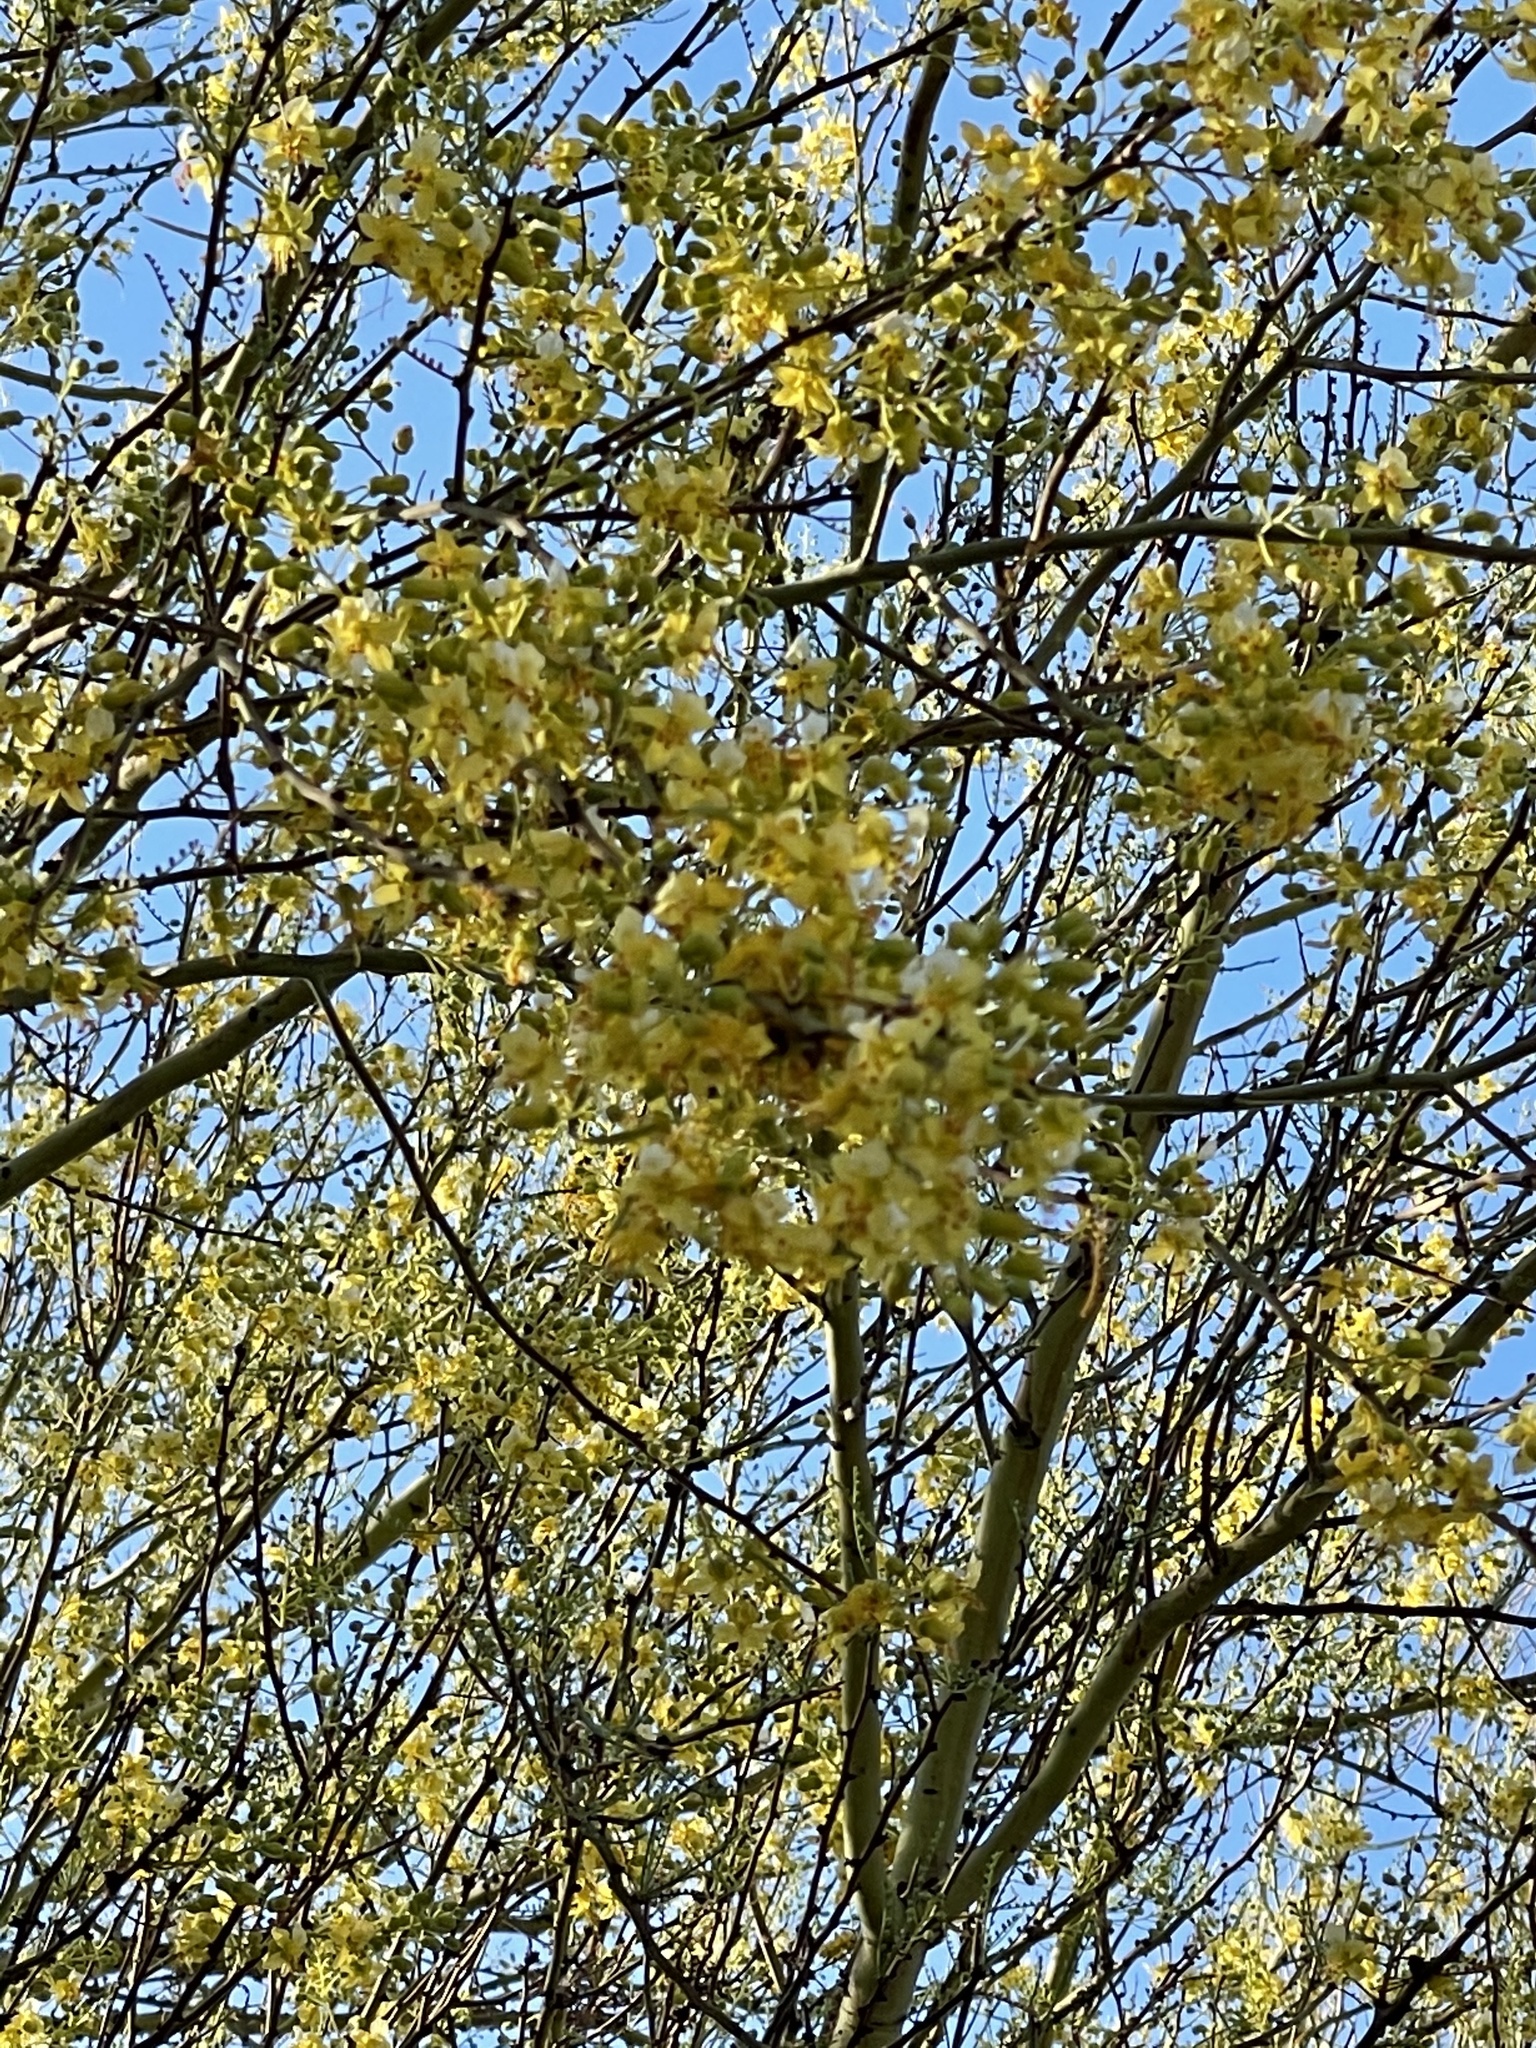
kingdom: Plantae
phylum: Tracheophyta
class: Magnoliopsida
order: Fabales
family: Fabaceae
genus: Parkinsonia
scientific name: Parkinsonia microphylla
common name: Yellow paloverde
